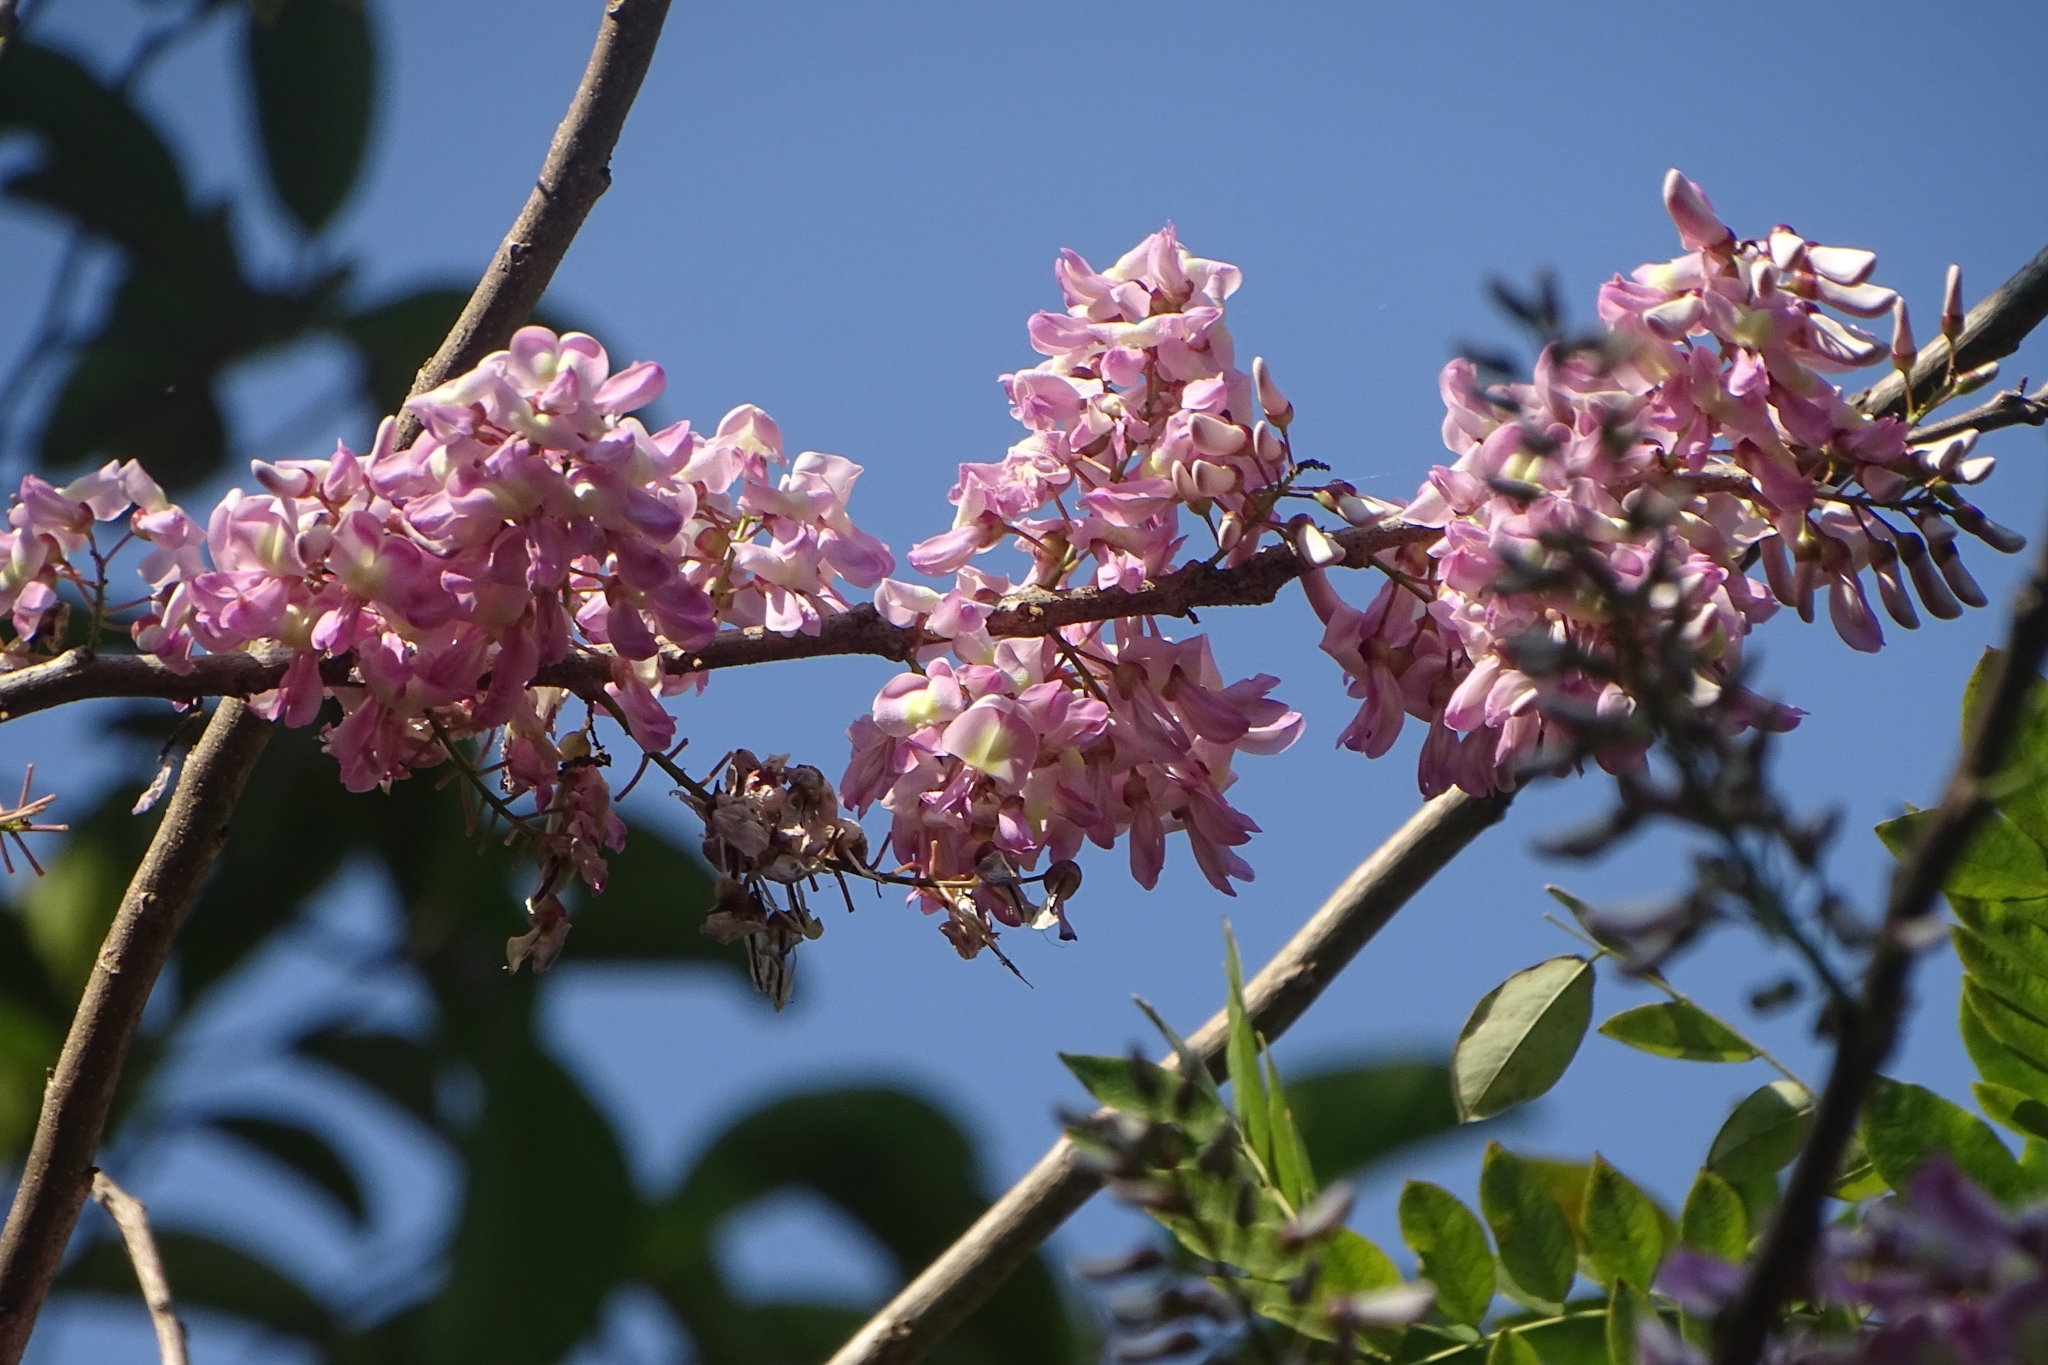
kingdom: Plantae
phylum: Tracheophyta
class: Magnoliopsida
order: Fabales
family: Fabaceae
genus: Gliricidia
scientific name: Gliricidia sepium
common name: Quickstick
